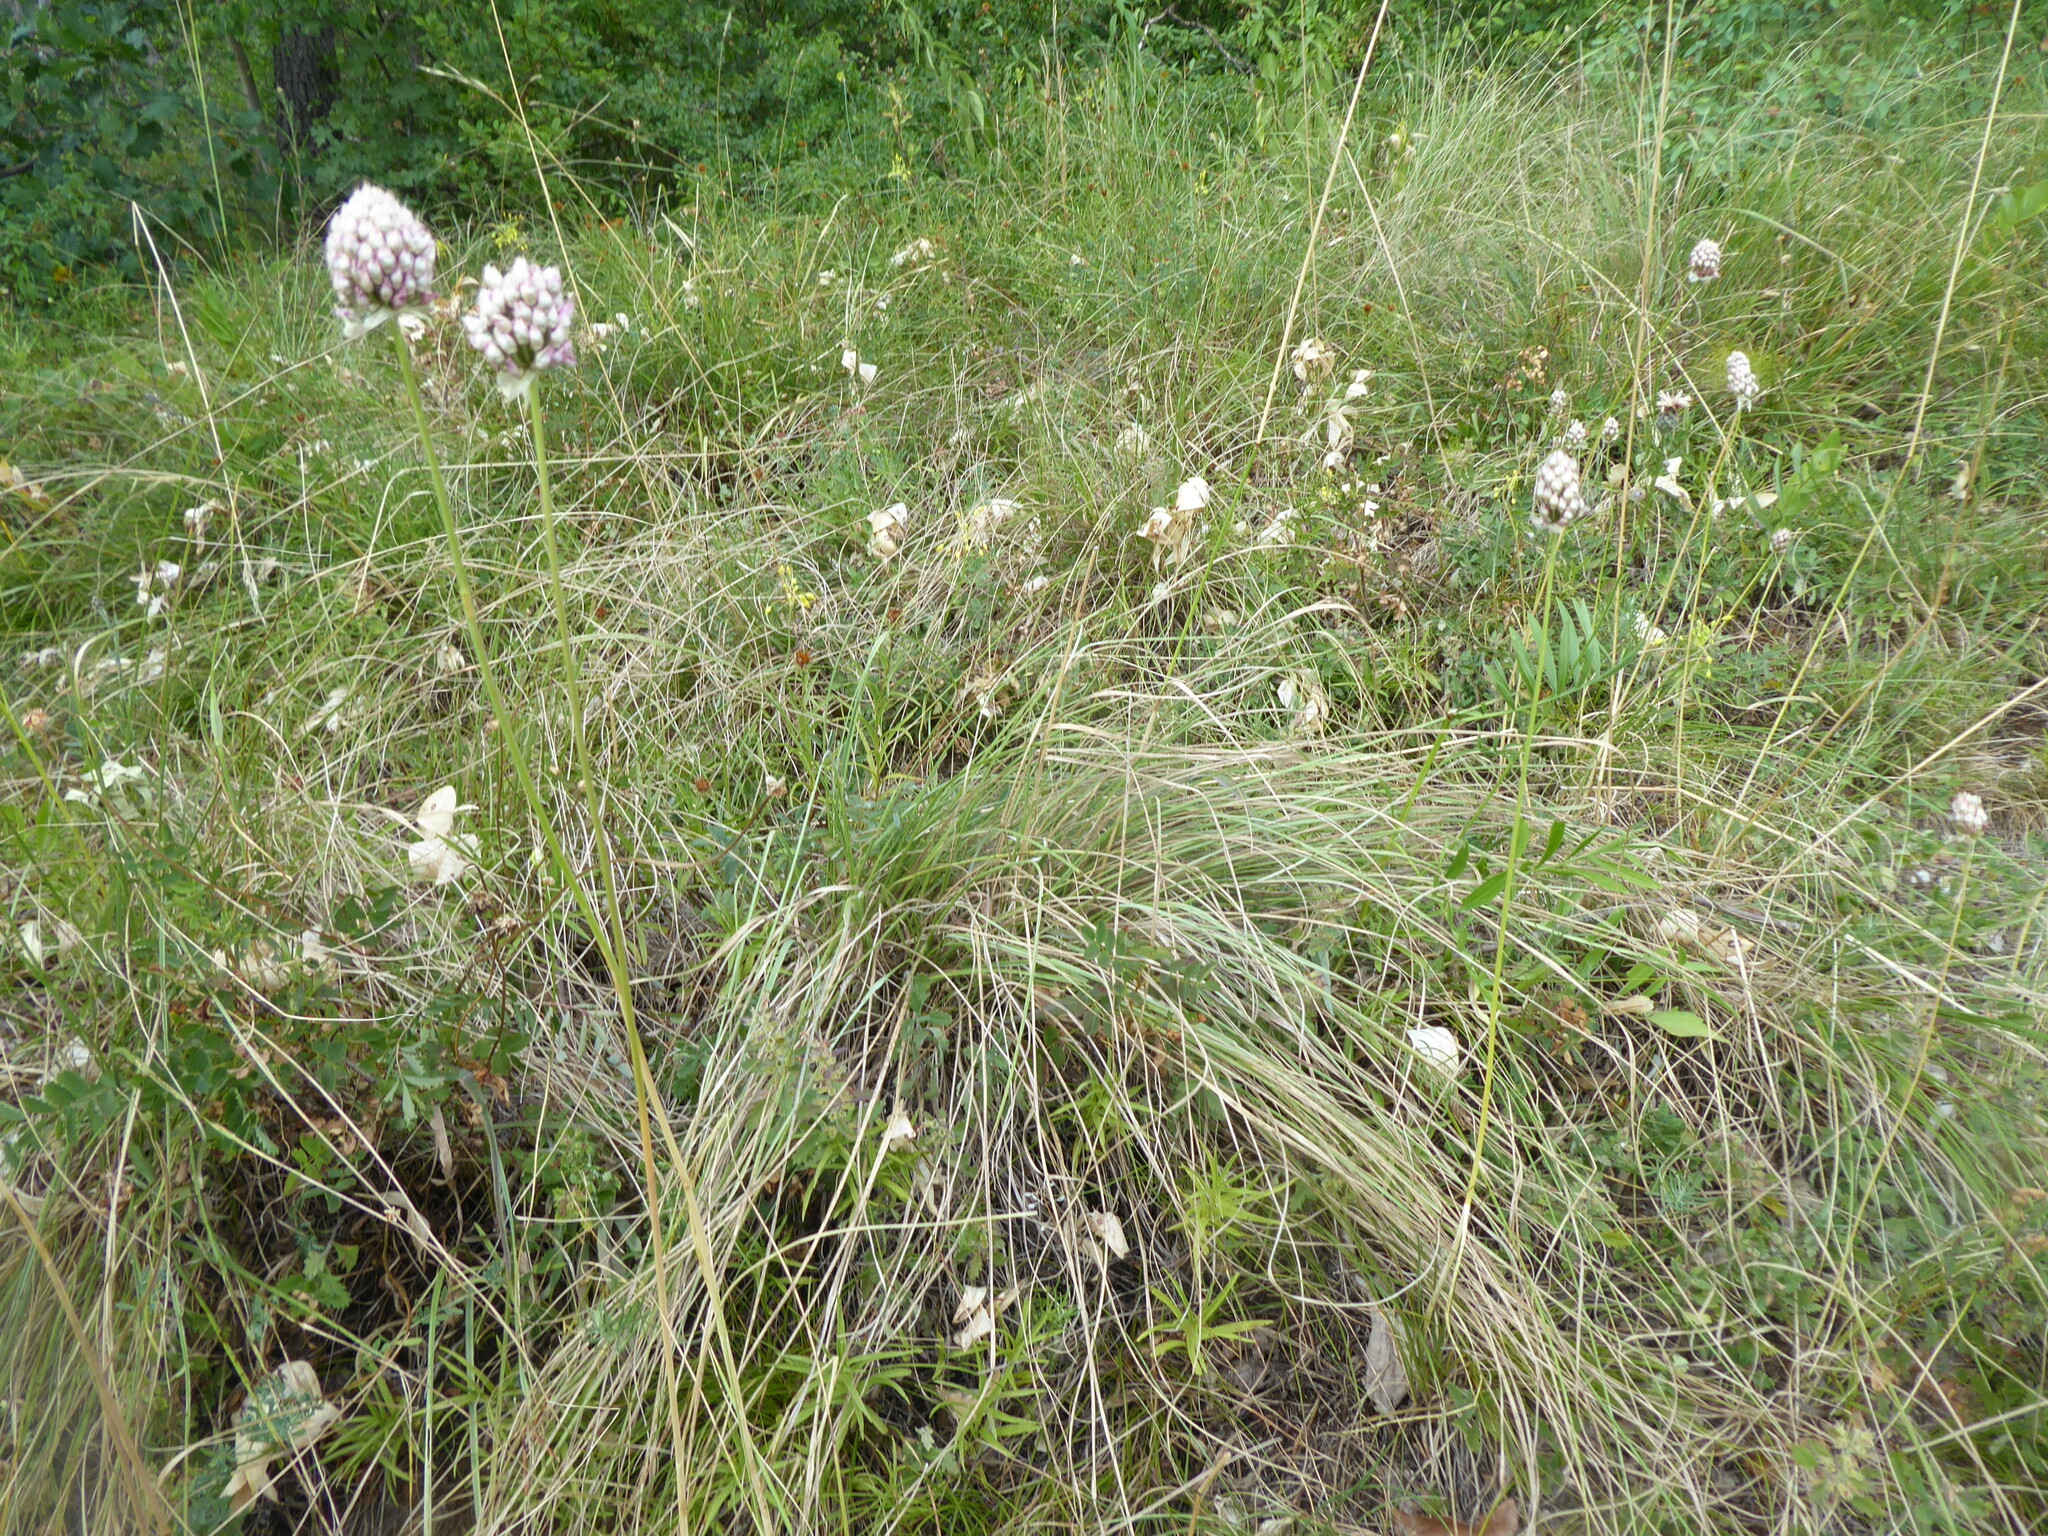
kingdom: Plantae
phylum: Tracheophyta
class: Liliopsida
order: Asparagales
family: Amaryllidaceae
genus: Allium
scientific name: Allium sphaerocephalon
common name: Round-headed leek
